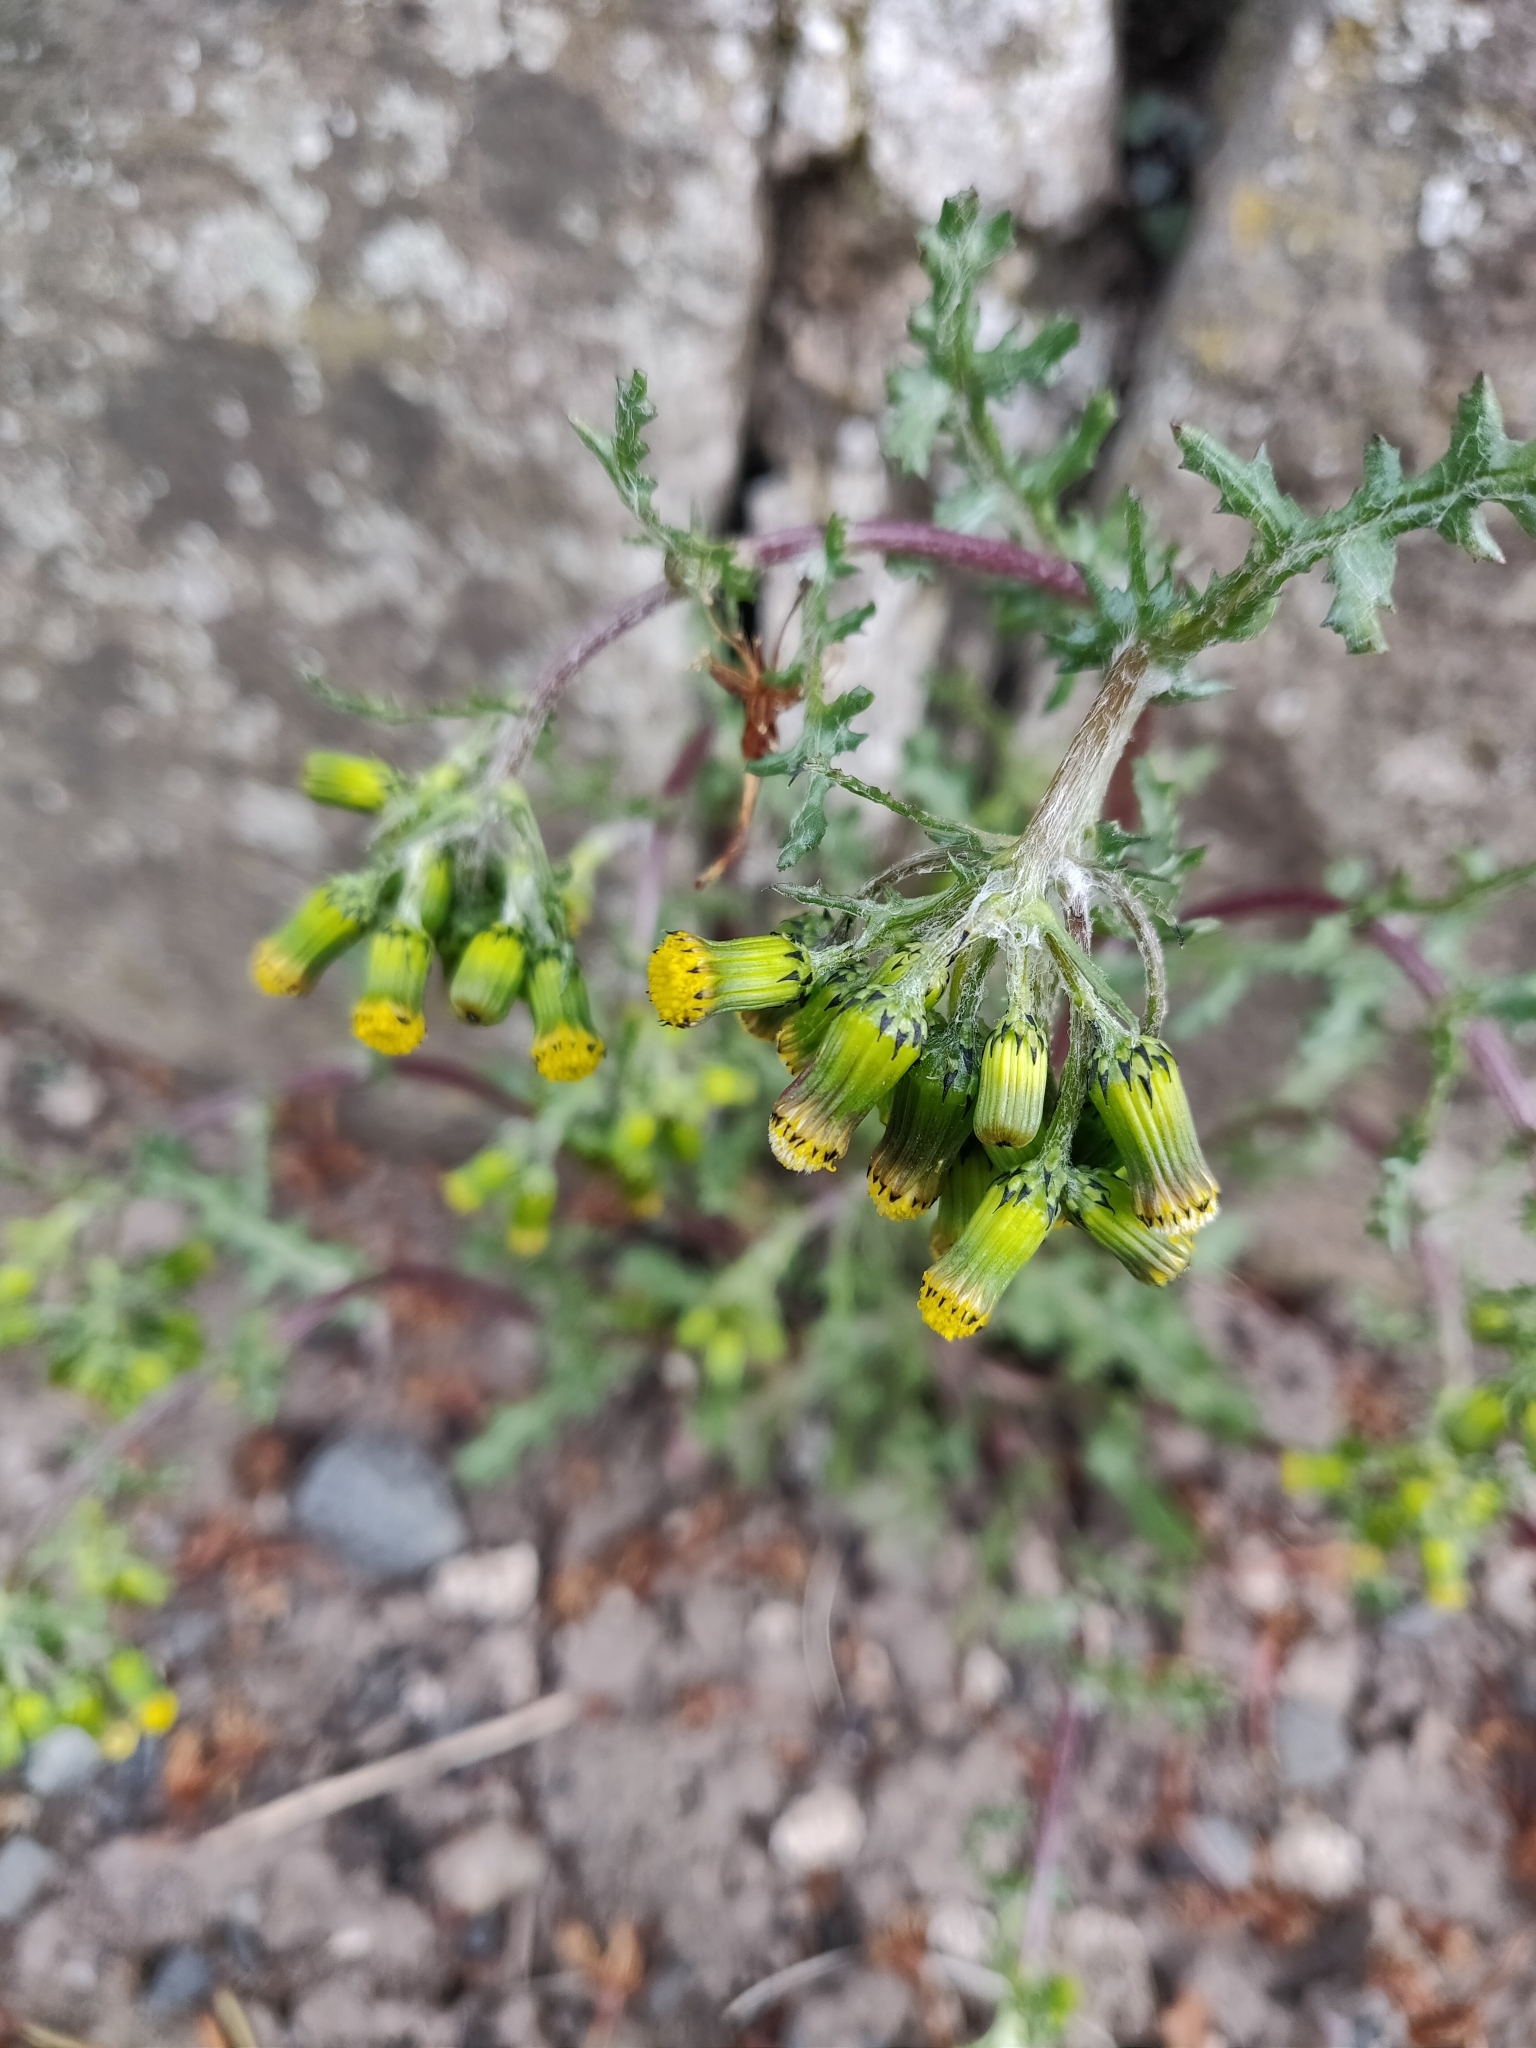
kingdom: Plantae
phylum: Tracheophyta
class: Magnoliopsida
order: Asterales
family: Asteraceae
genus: Senecio
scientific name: Senecio vulgaris
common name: Old-man-in-the-spring
